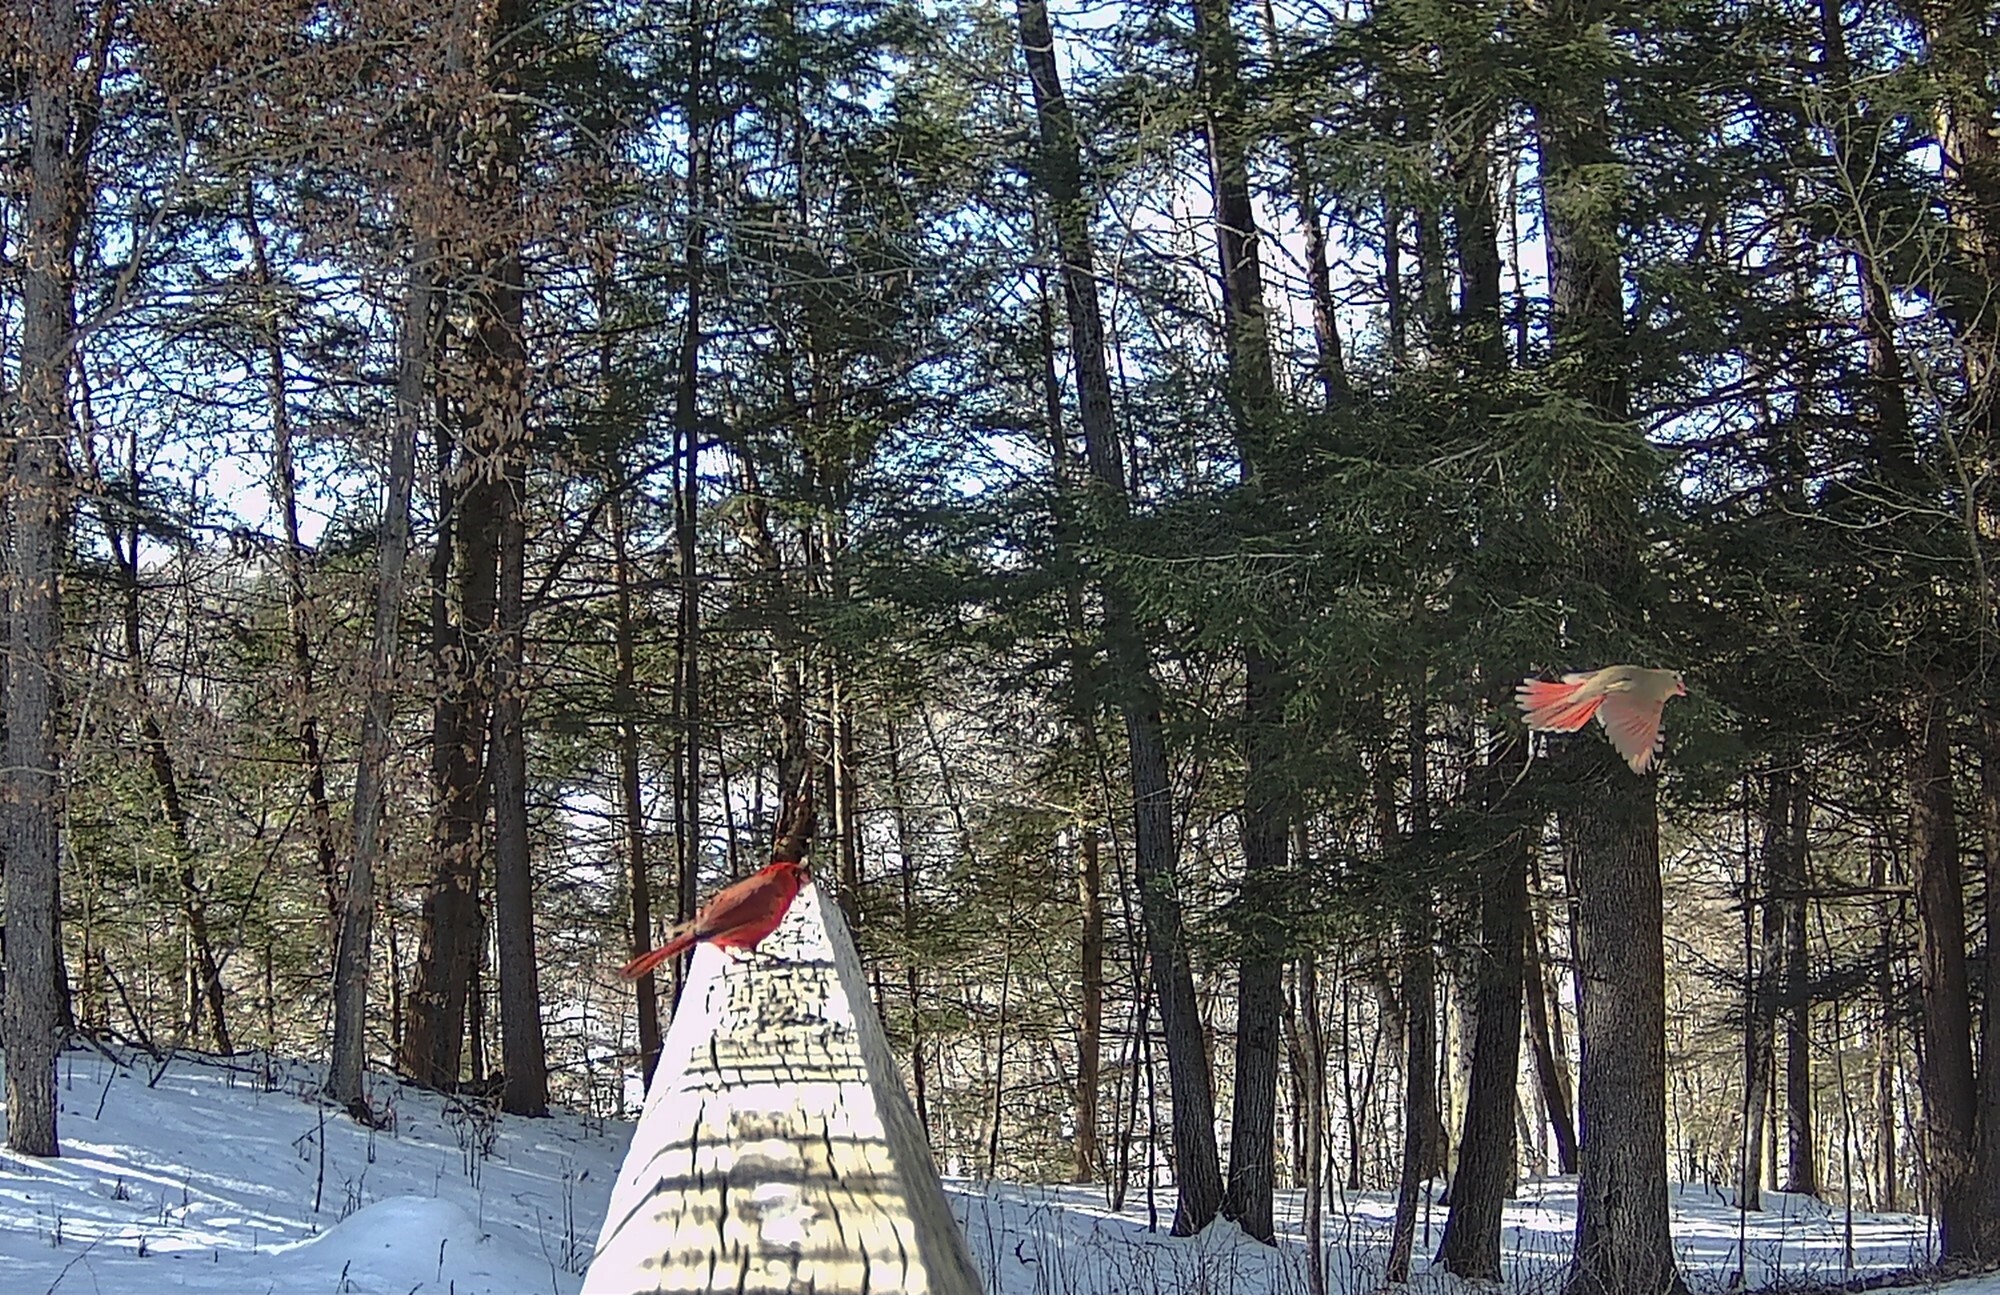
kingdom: Animalia
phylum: Chordata
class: Aves
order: Passeriformes
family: Cardinalidae
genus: Cardinalis
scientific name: Cardinalis cardinalis
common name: Northern cardinal
